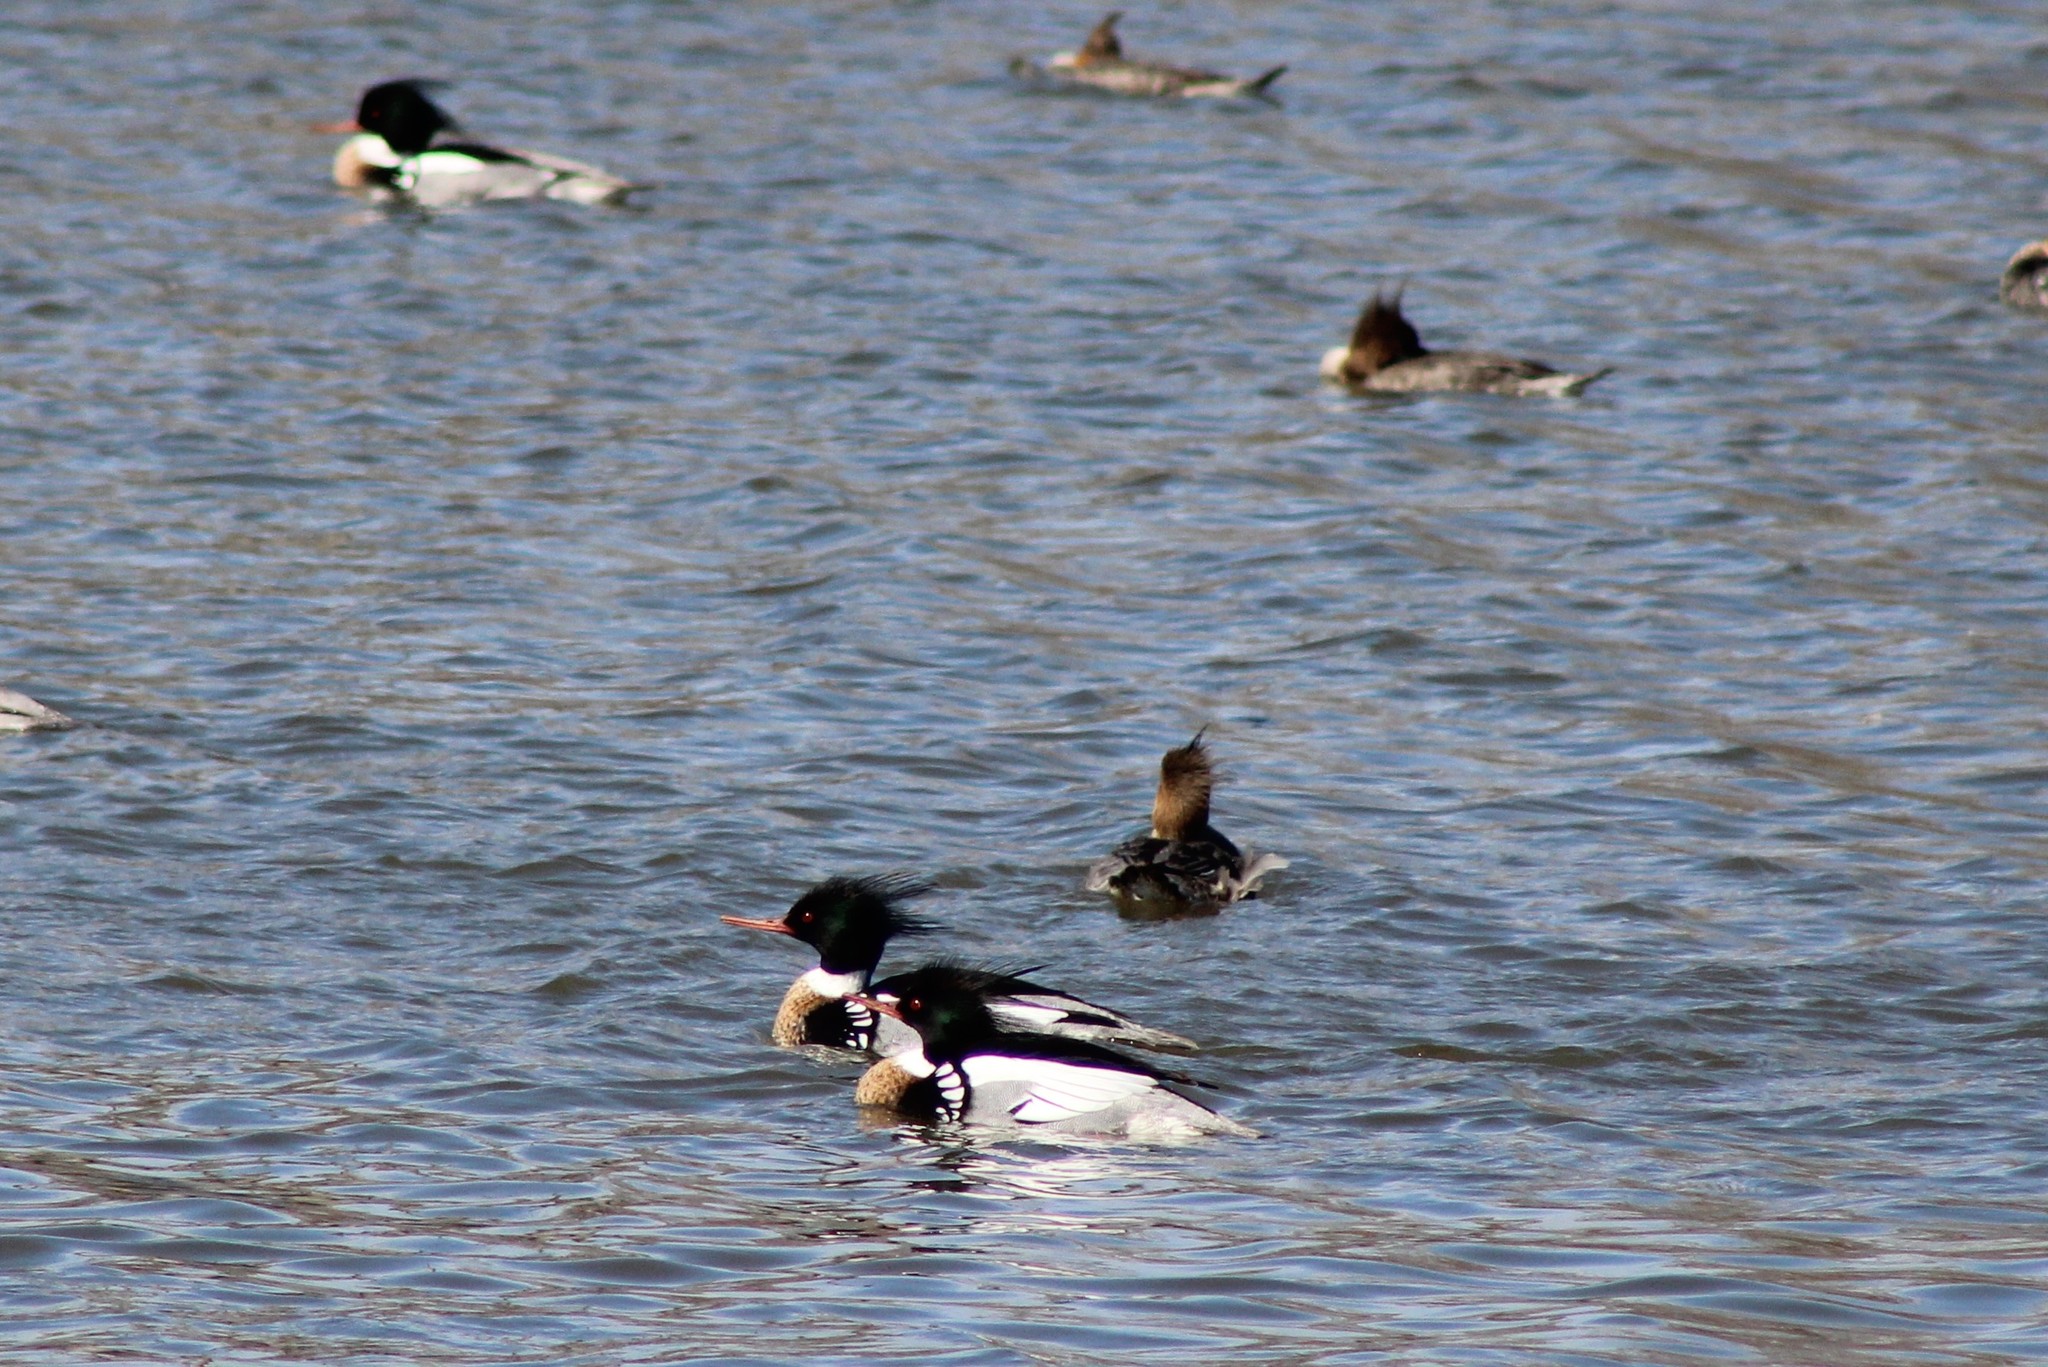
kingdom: Animalia
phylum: Chordata
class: Aves
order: Anseriformes
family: Anatidae
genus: Mergus
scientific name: Mergus serrator
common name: Red-breasted merganser
